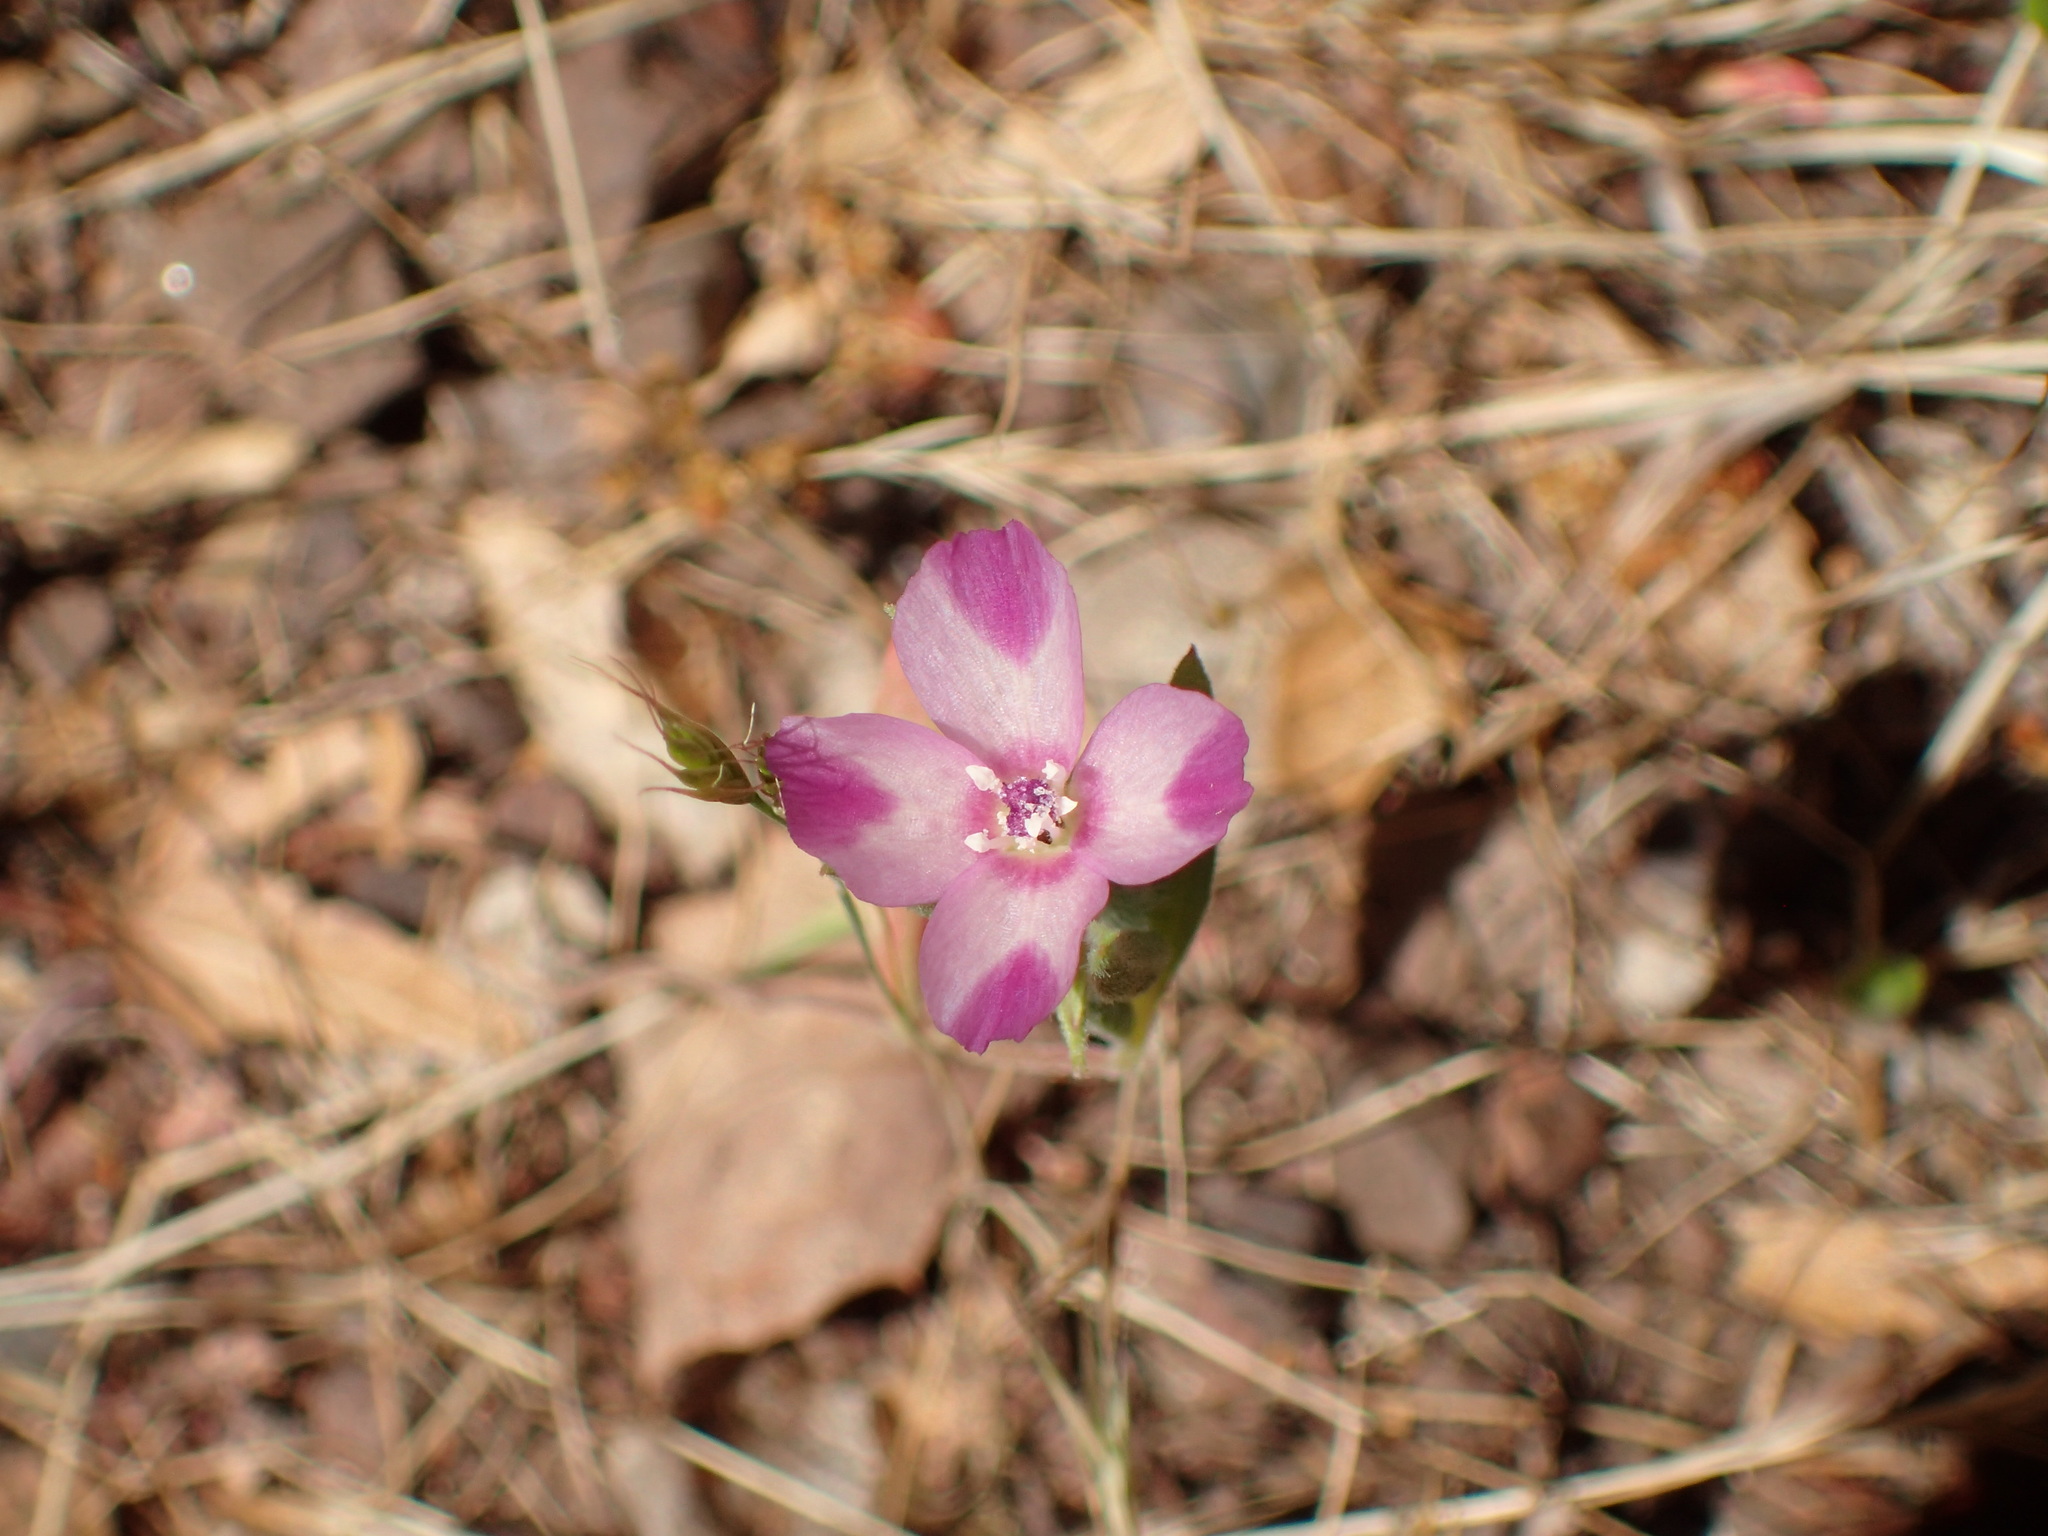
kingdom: Plantae
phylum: Tracheophyta
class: Magnoliopsida
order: Myrtales
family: Onagraceae
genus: Clarkia
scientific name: Clarkia purpurea
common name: Purple clarkia
